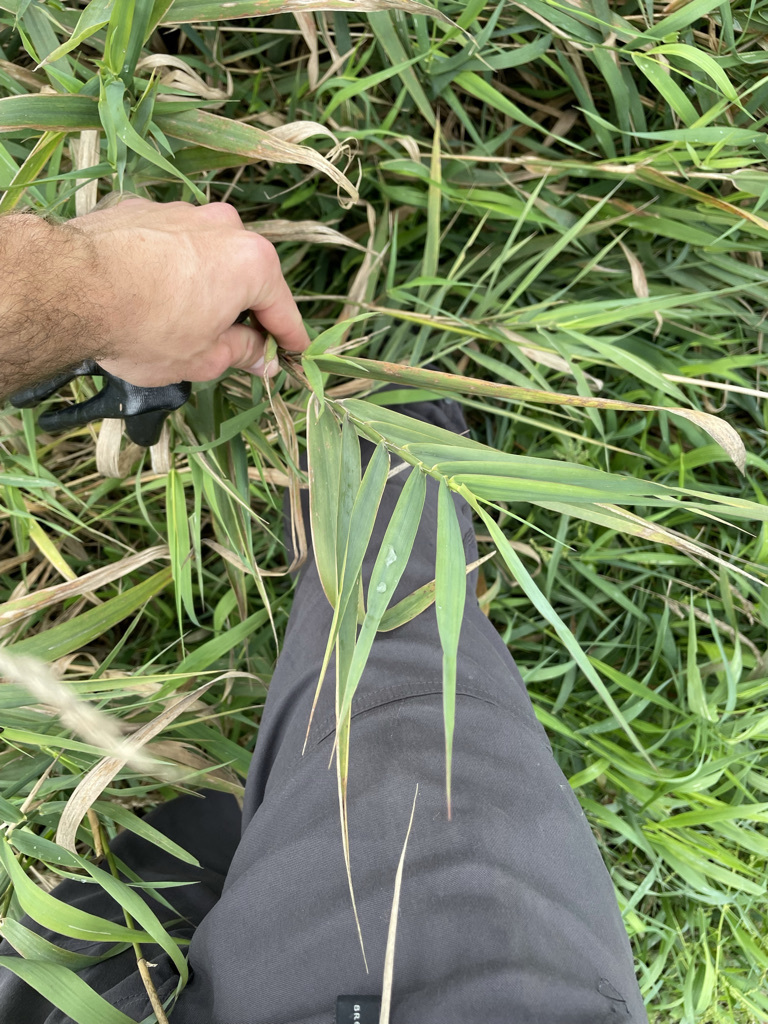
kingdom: Plantae
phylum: Tracheophyta
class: Liliopsida
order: Poales
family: Poaceae
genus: Phalaris
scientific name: Phalaris arundinacea
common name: Reed canary-grass
